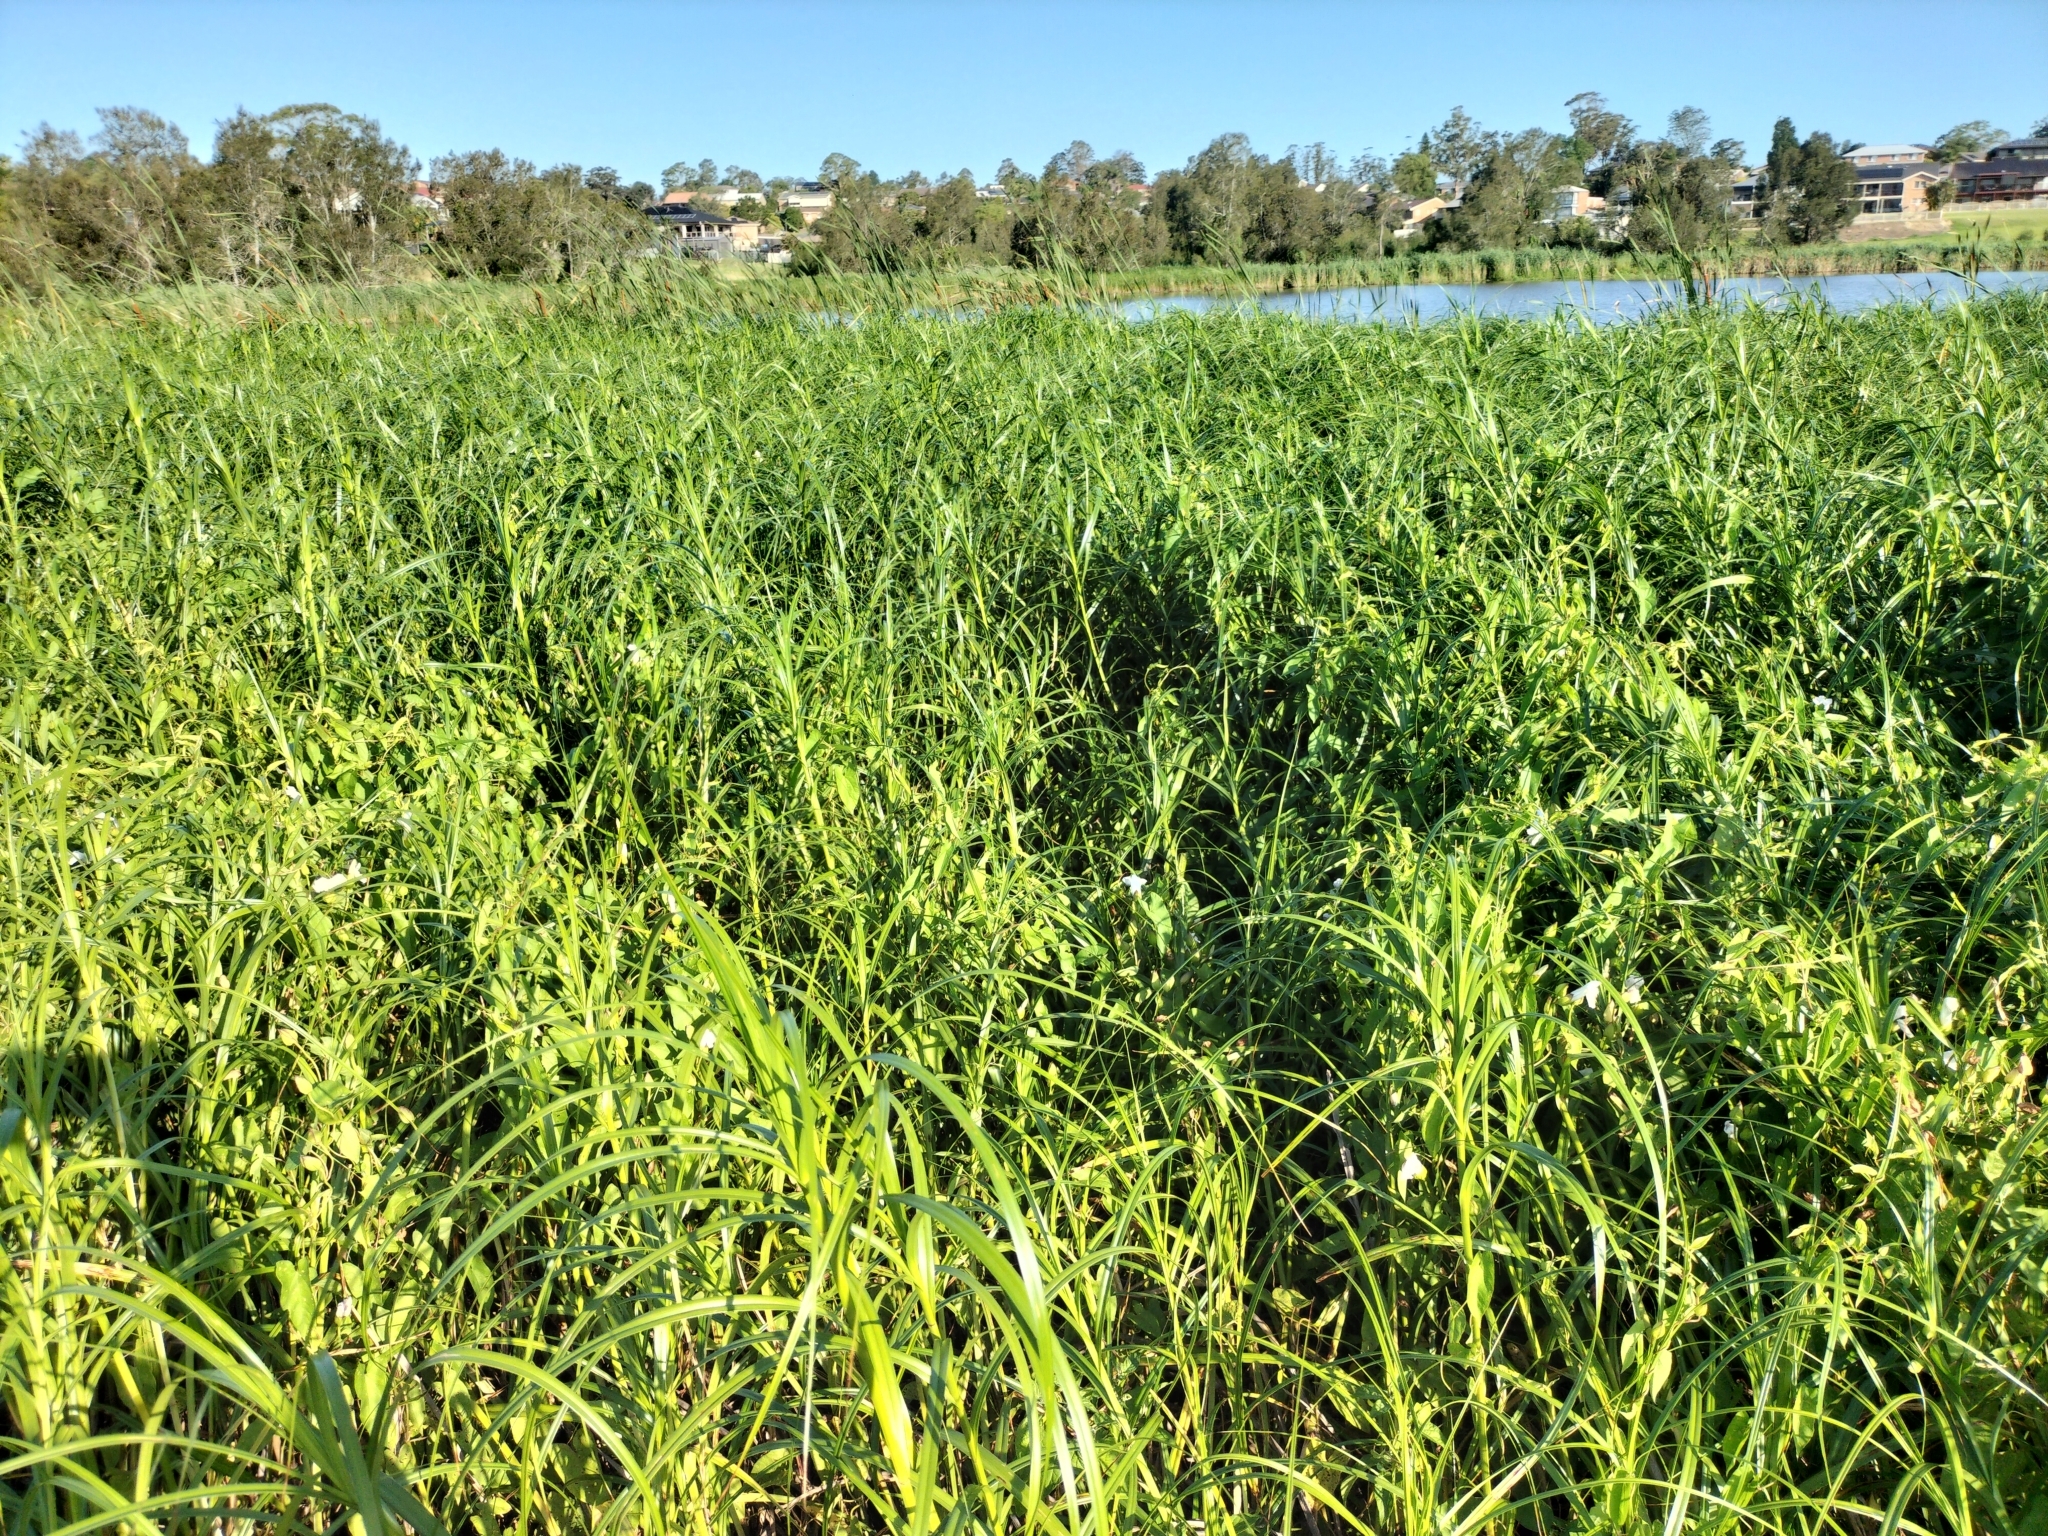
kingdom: Plantae
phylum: Tracheophyta
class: Liliopsida
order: Poales
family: Cyperaceae
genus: Bolboschoenus
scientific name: Bolboschoenus fluviatilis
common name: River bulrush
